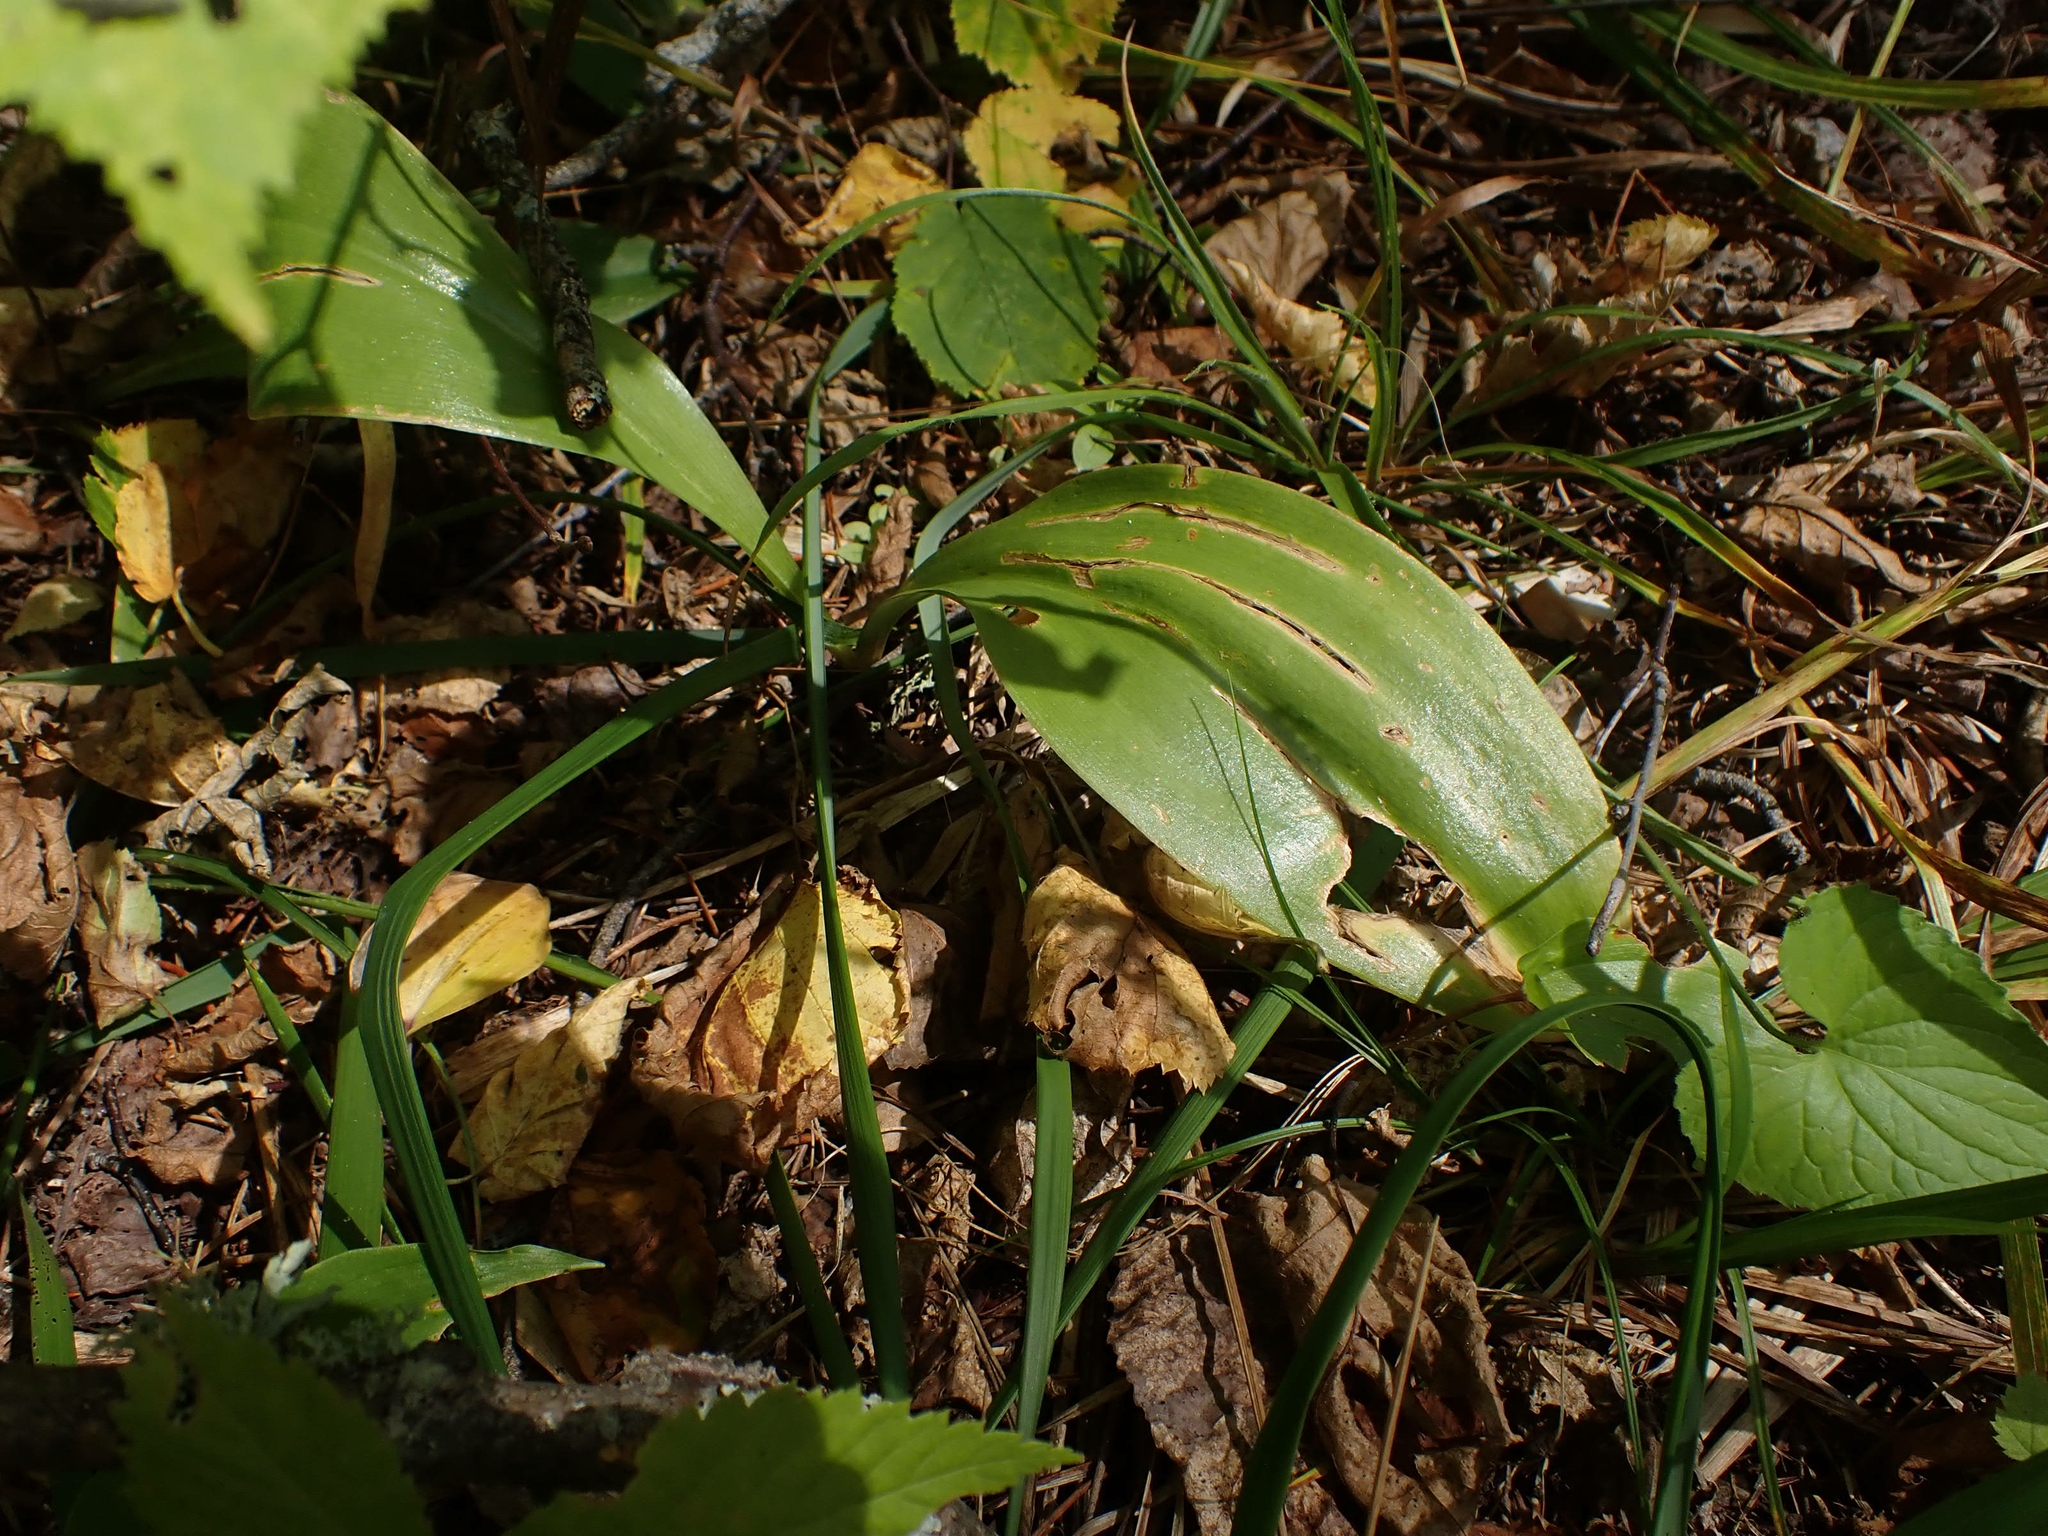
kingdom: Plantae
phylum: Tracheophyta
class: Liliopsida
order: Liliales
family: Liliaceae
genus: Clintonia
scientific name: Clintonia borealis
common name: Yellow clintonia
